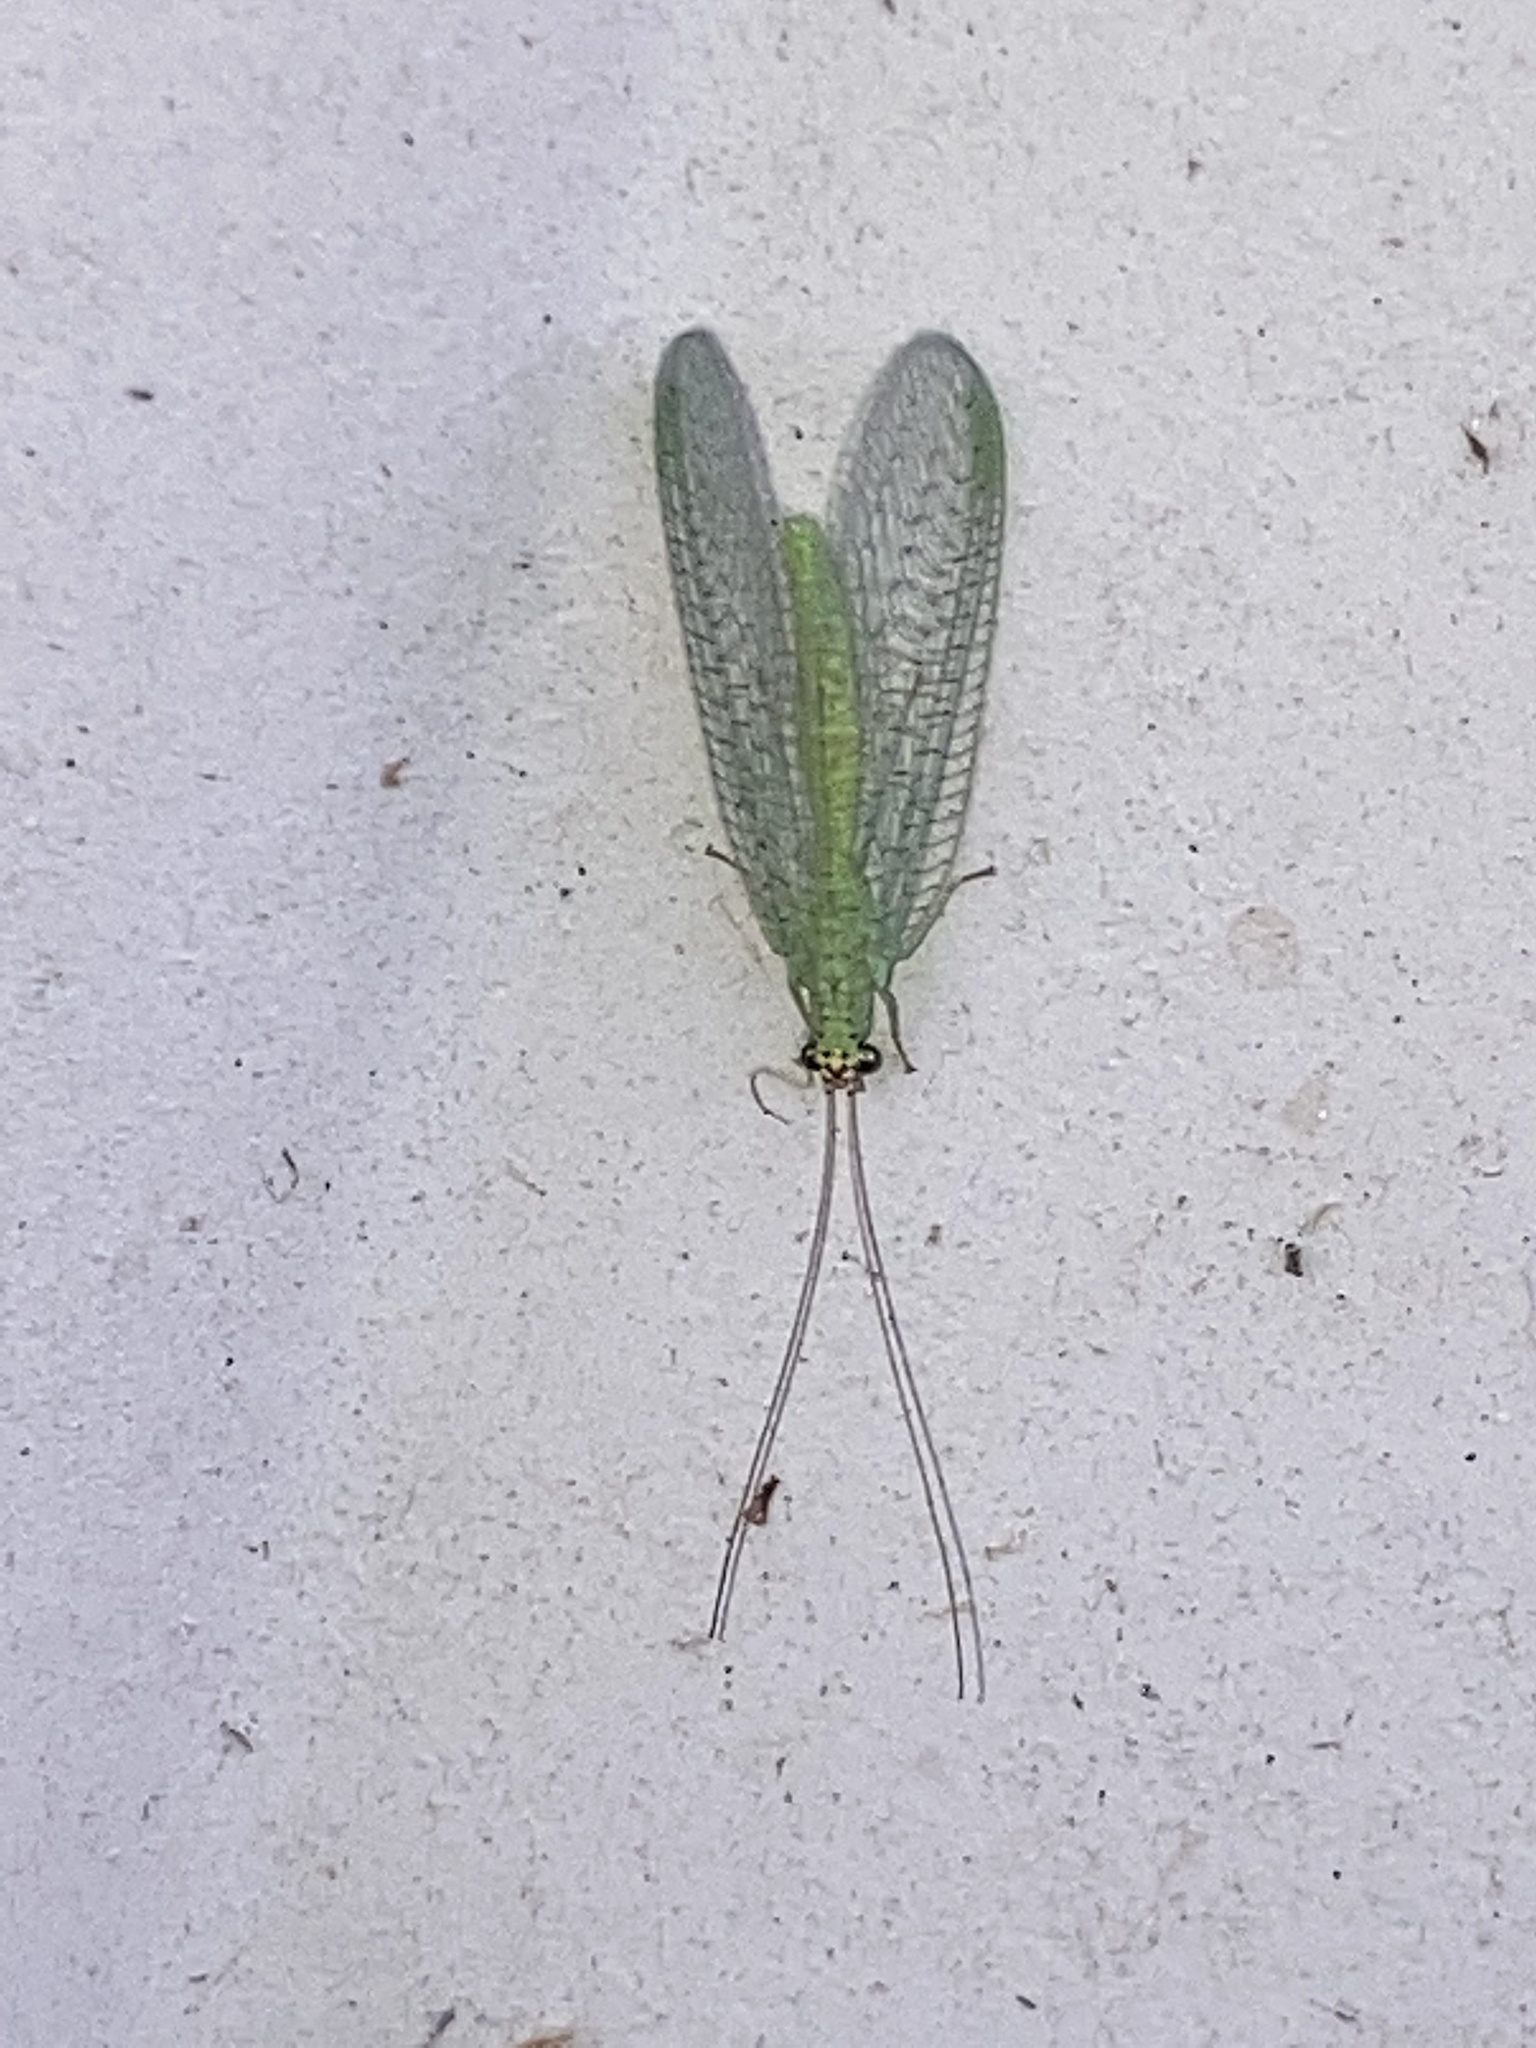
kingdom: Animalia
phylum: Arthropoda
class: Insecta
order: Neuroptera
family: Chrysopidae
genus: Chrysopa
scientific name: Chrysopa oculata
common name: Golden-eyed lacewing
